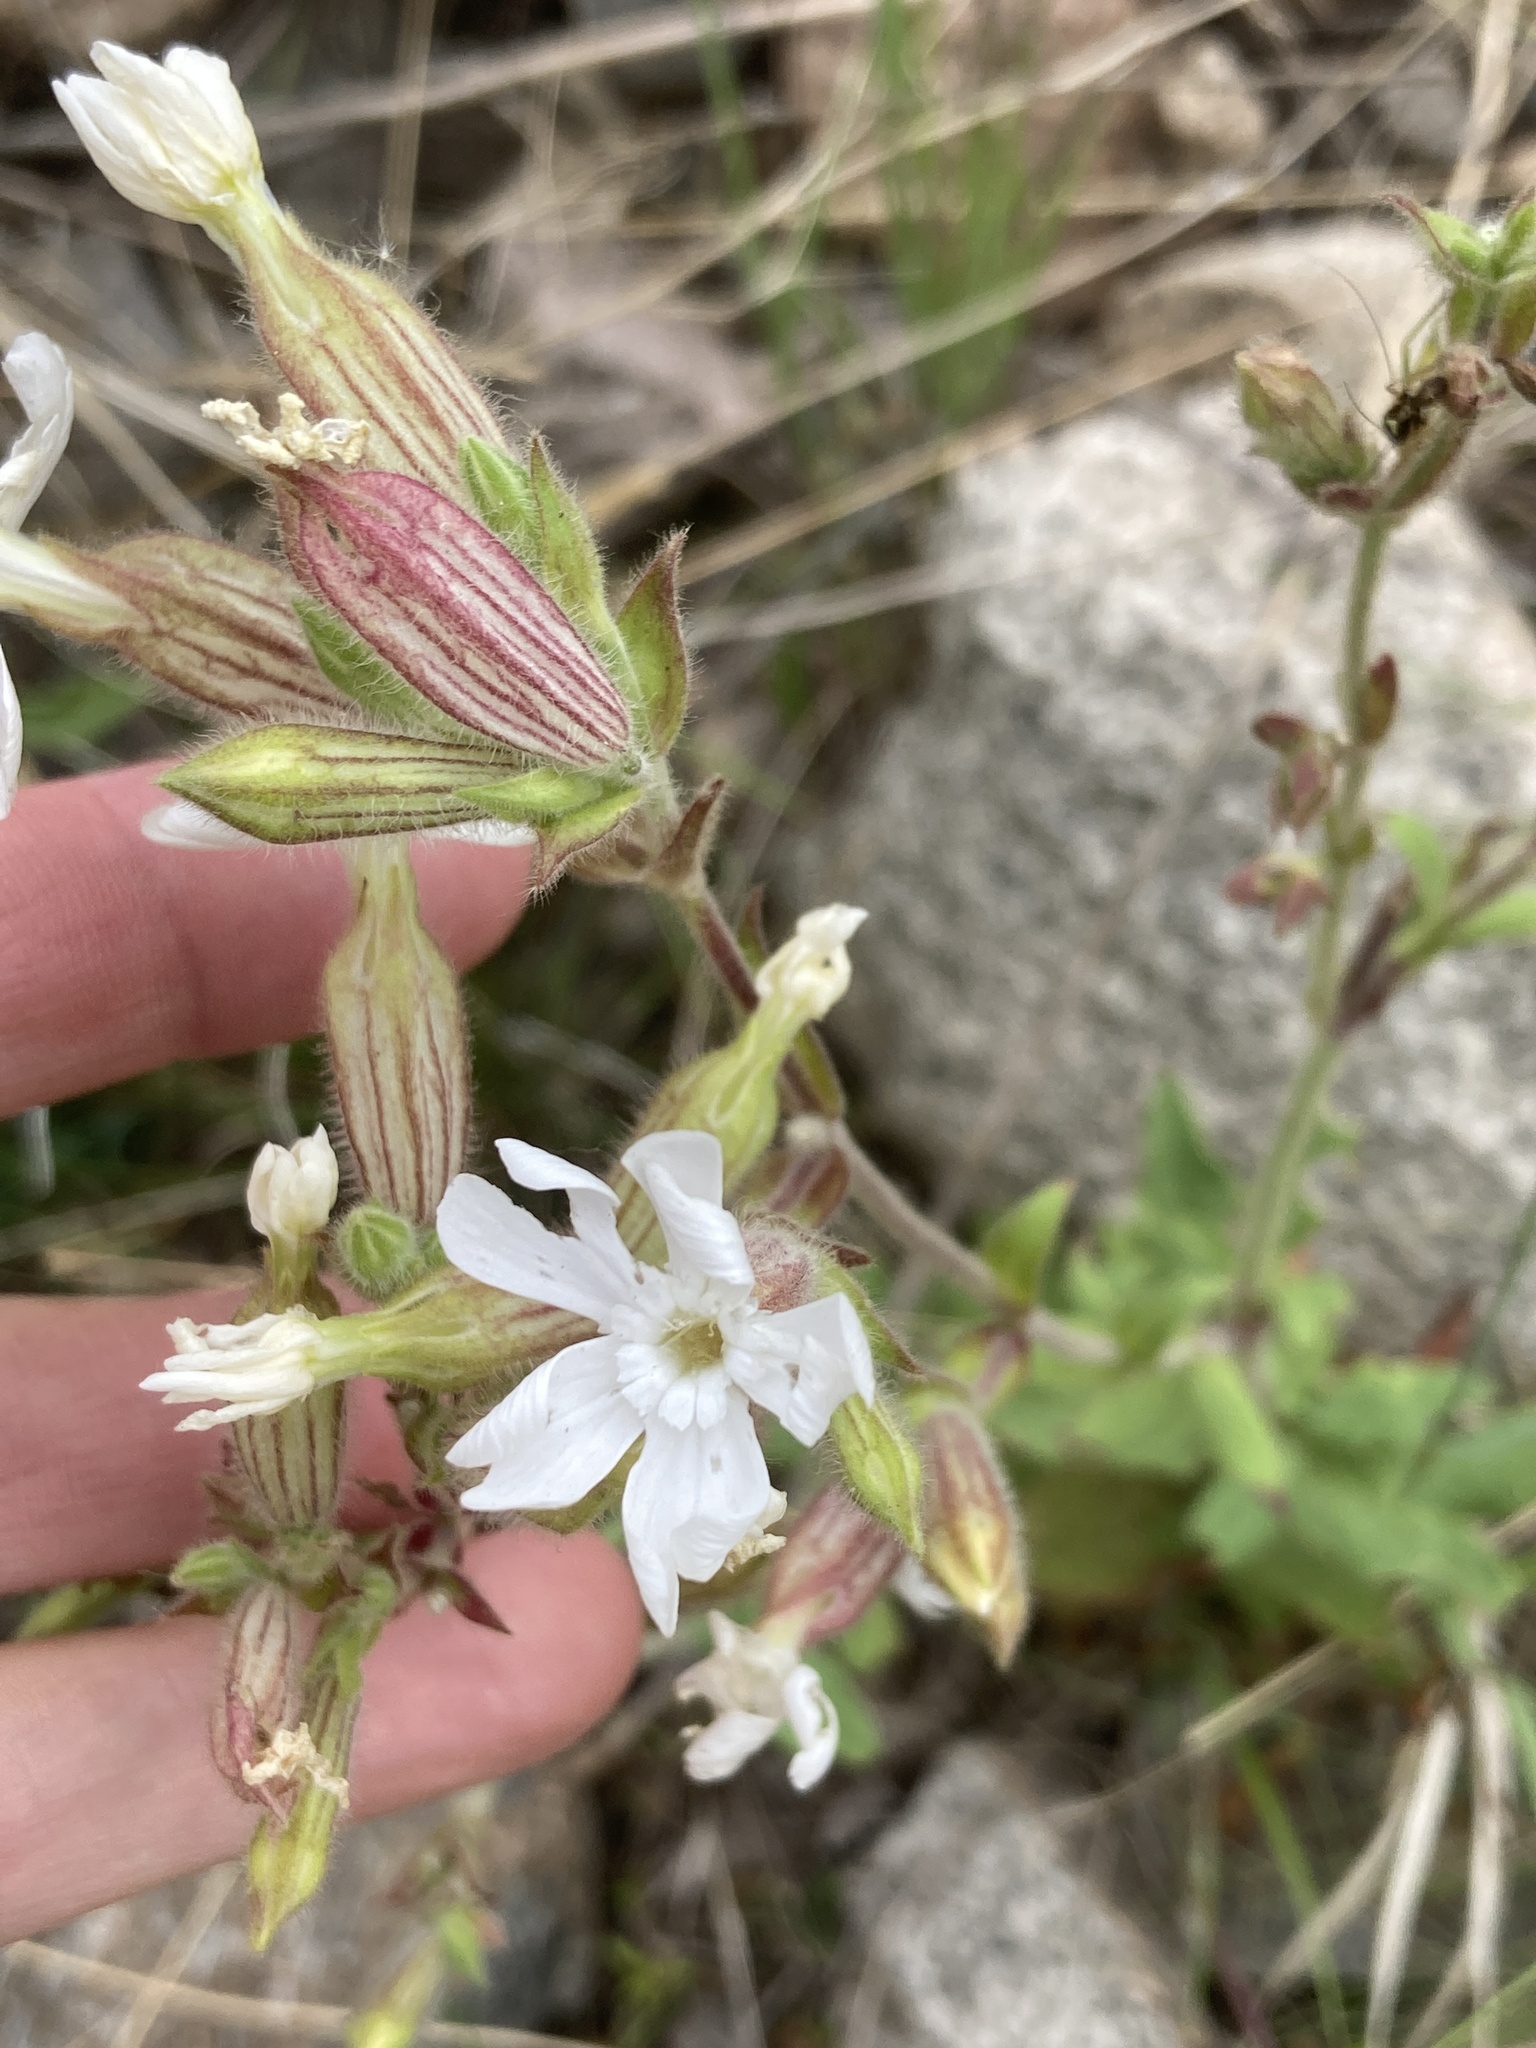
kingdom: Plantae
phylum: Tracheophyta
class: Magnoliopsida
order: Caryophyllales
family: Caryophyllaceae
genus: Silene
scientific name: Silene latifolia
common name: White campion
